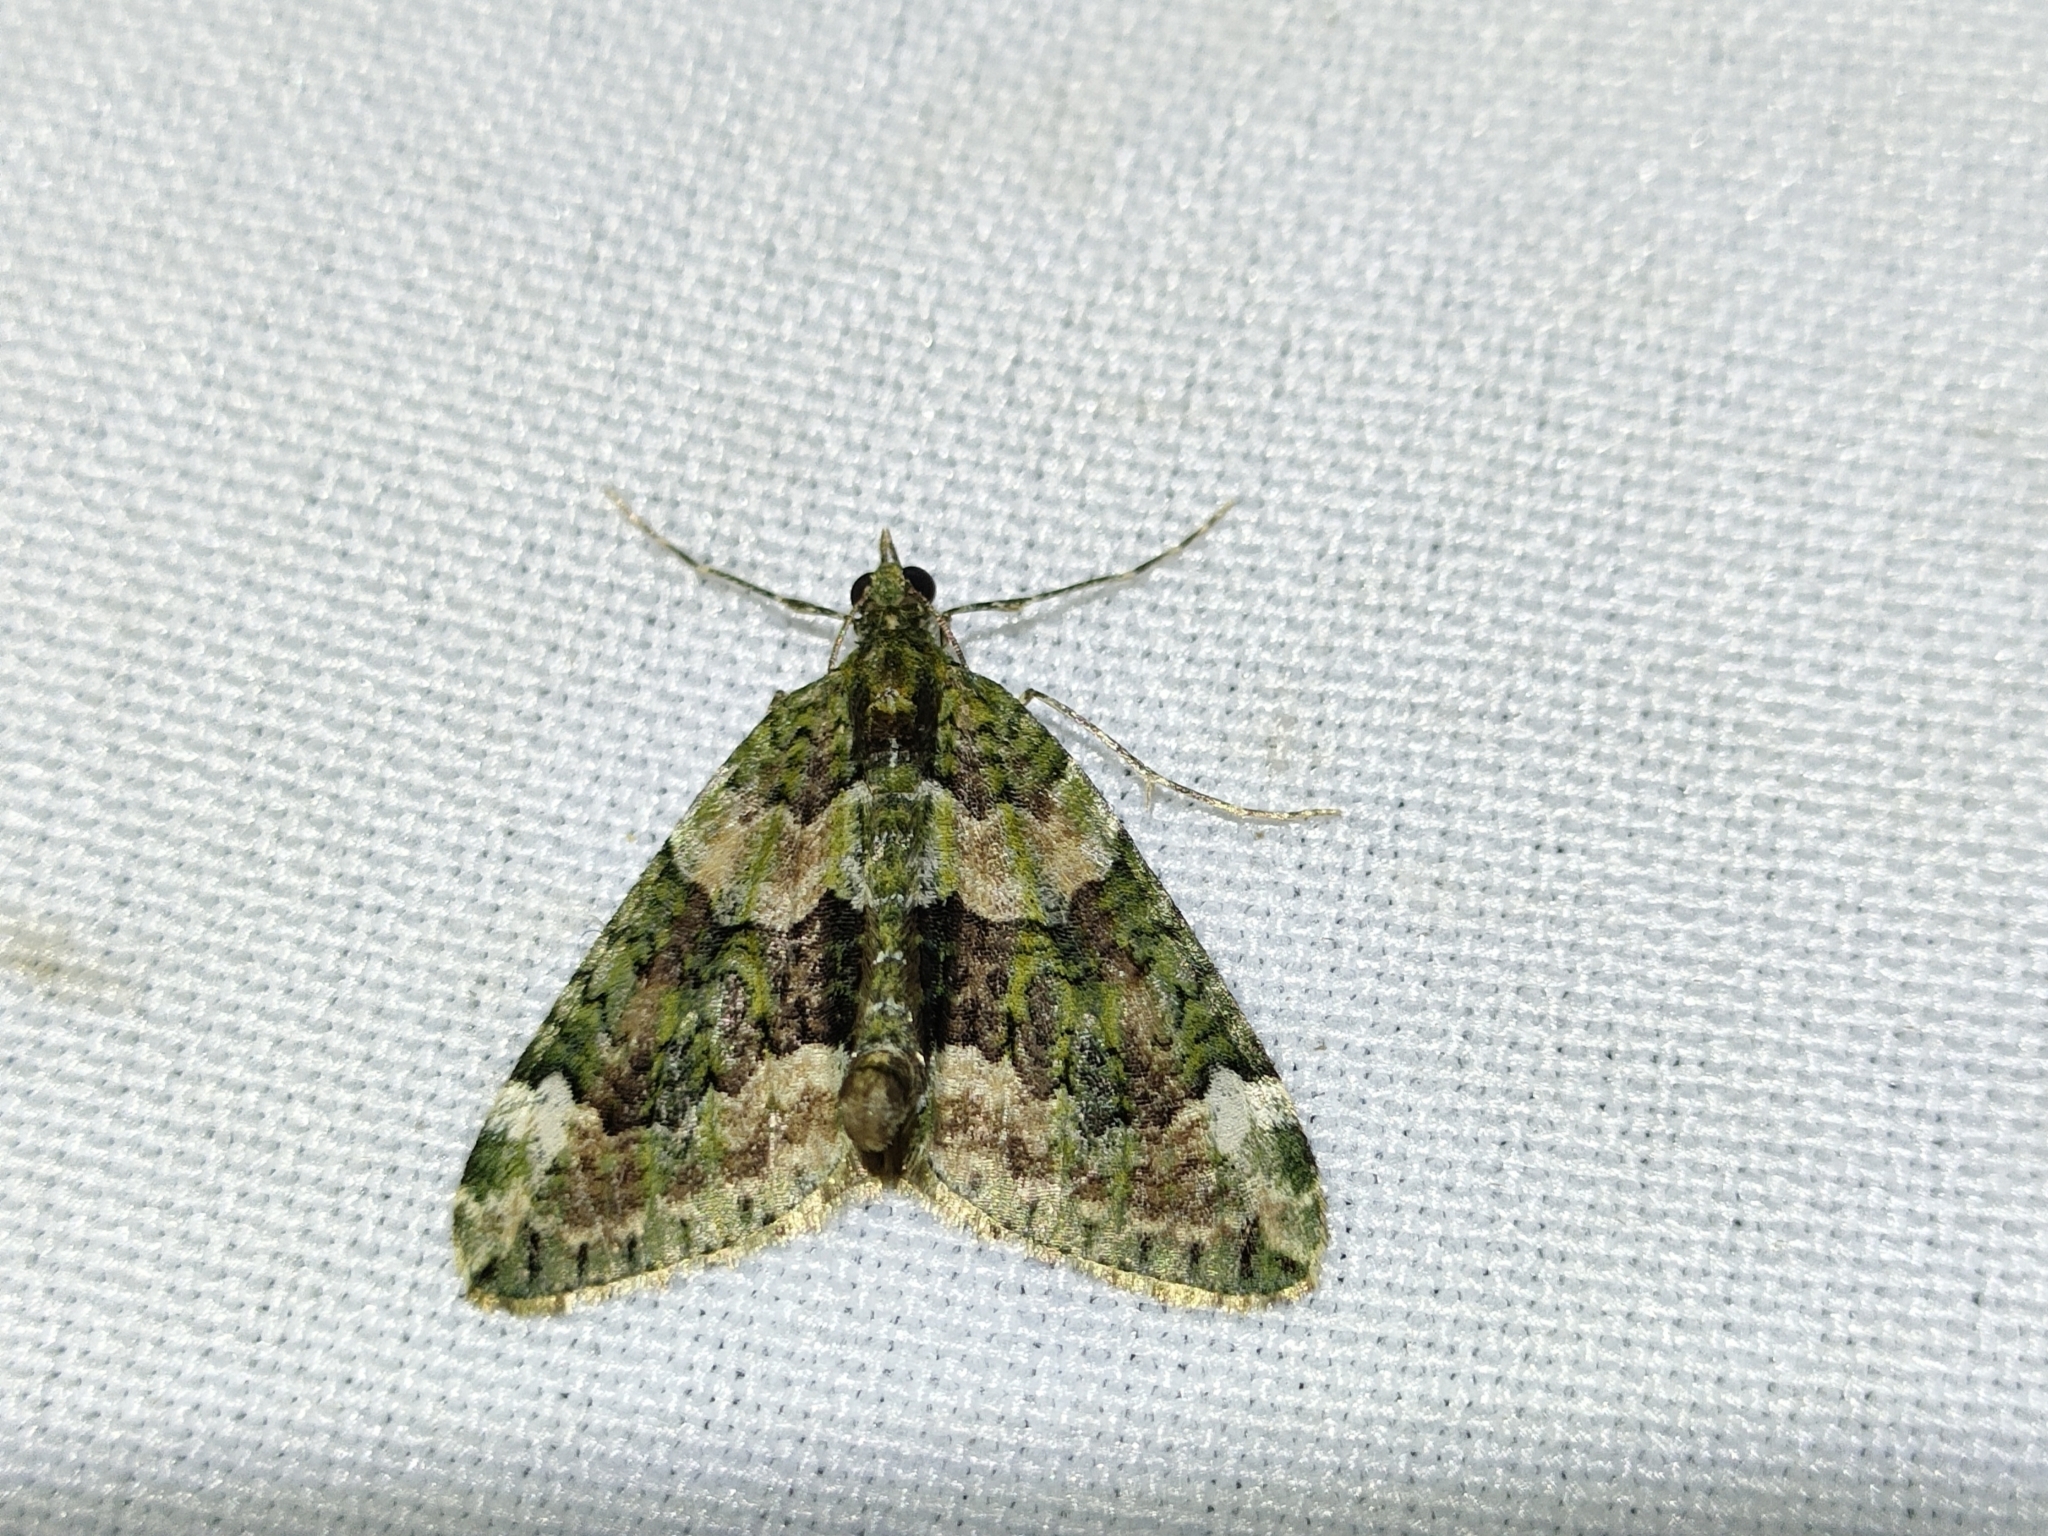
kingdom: Animalia
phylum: Arthropoda
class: Insecta
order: Lepidoptera
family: Geometridae
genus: Chloroclysta
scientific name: Chloroclysta siterata
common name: Red-green carpet
